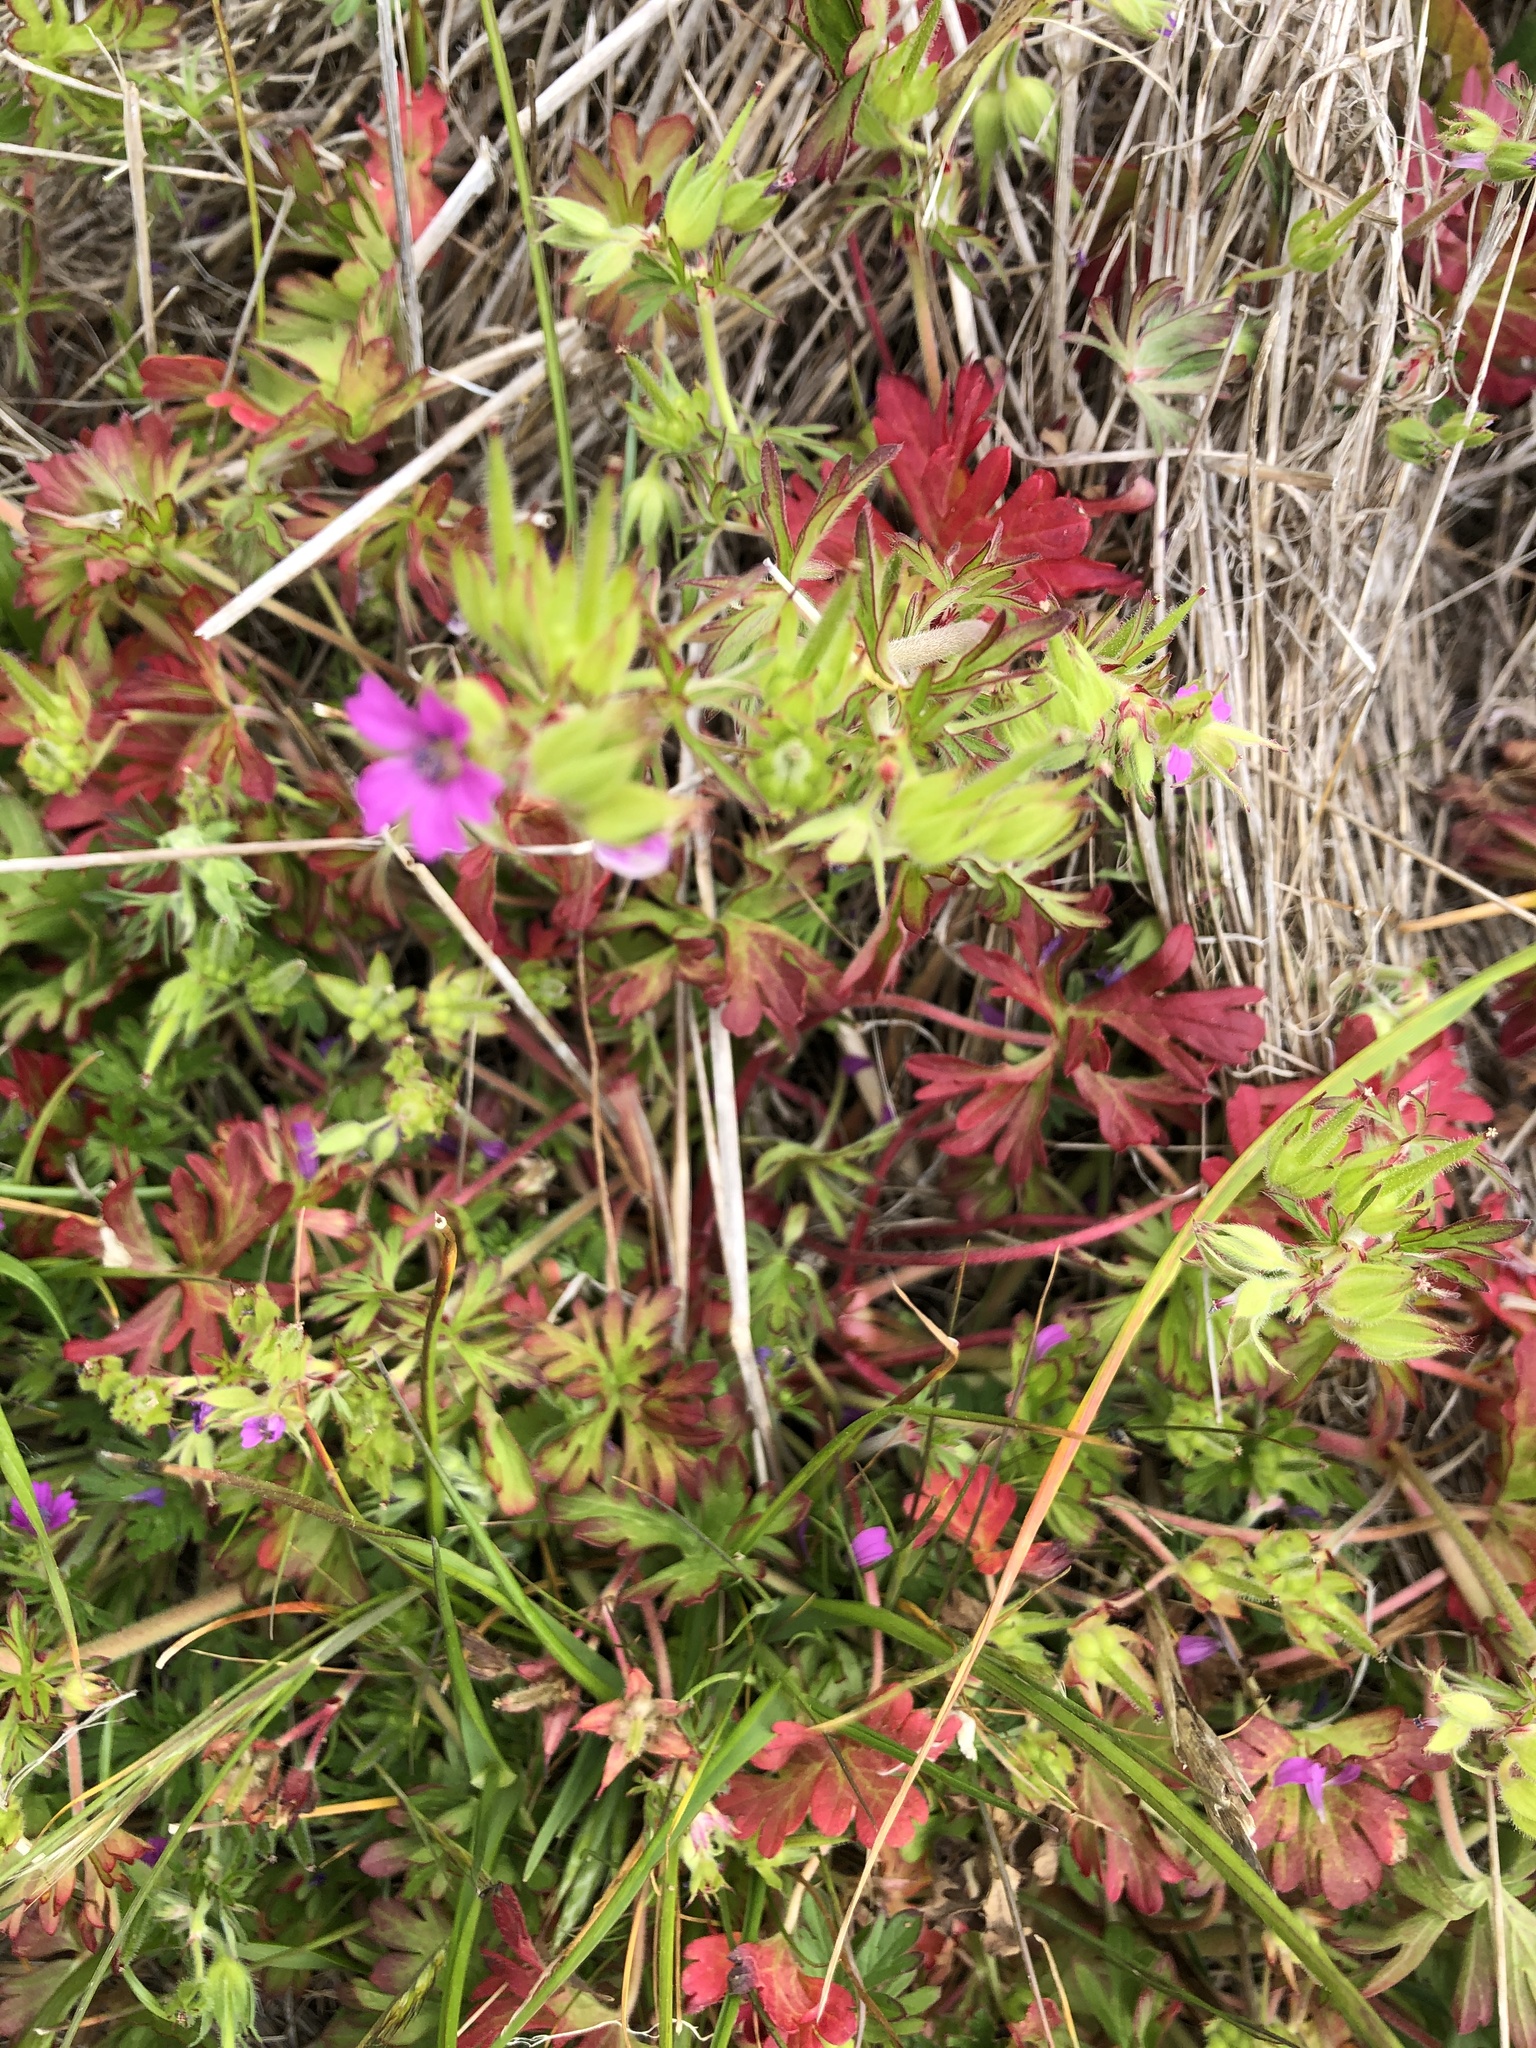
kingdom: Plantae
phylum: Tracheophyta
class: Magnoliopsida
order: Geraniales
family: Geraniaceae
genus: Geranium
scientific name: Geranium dissectum
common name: Cut-leaved crane's-bill
